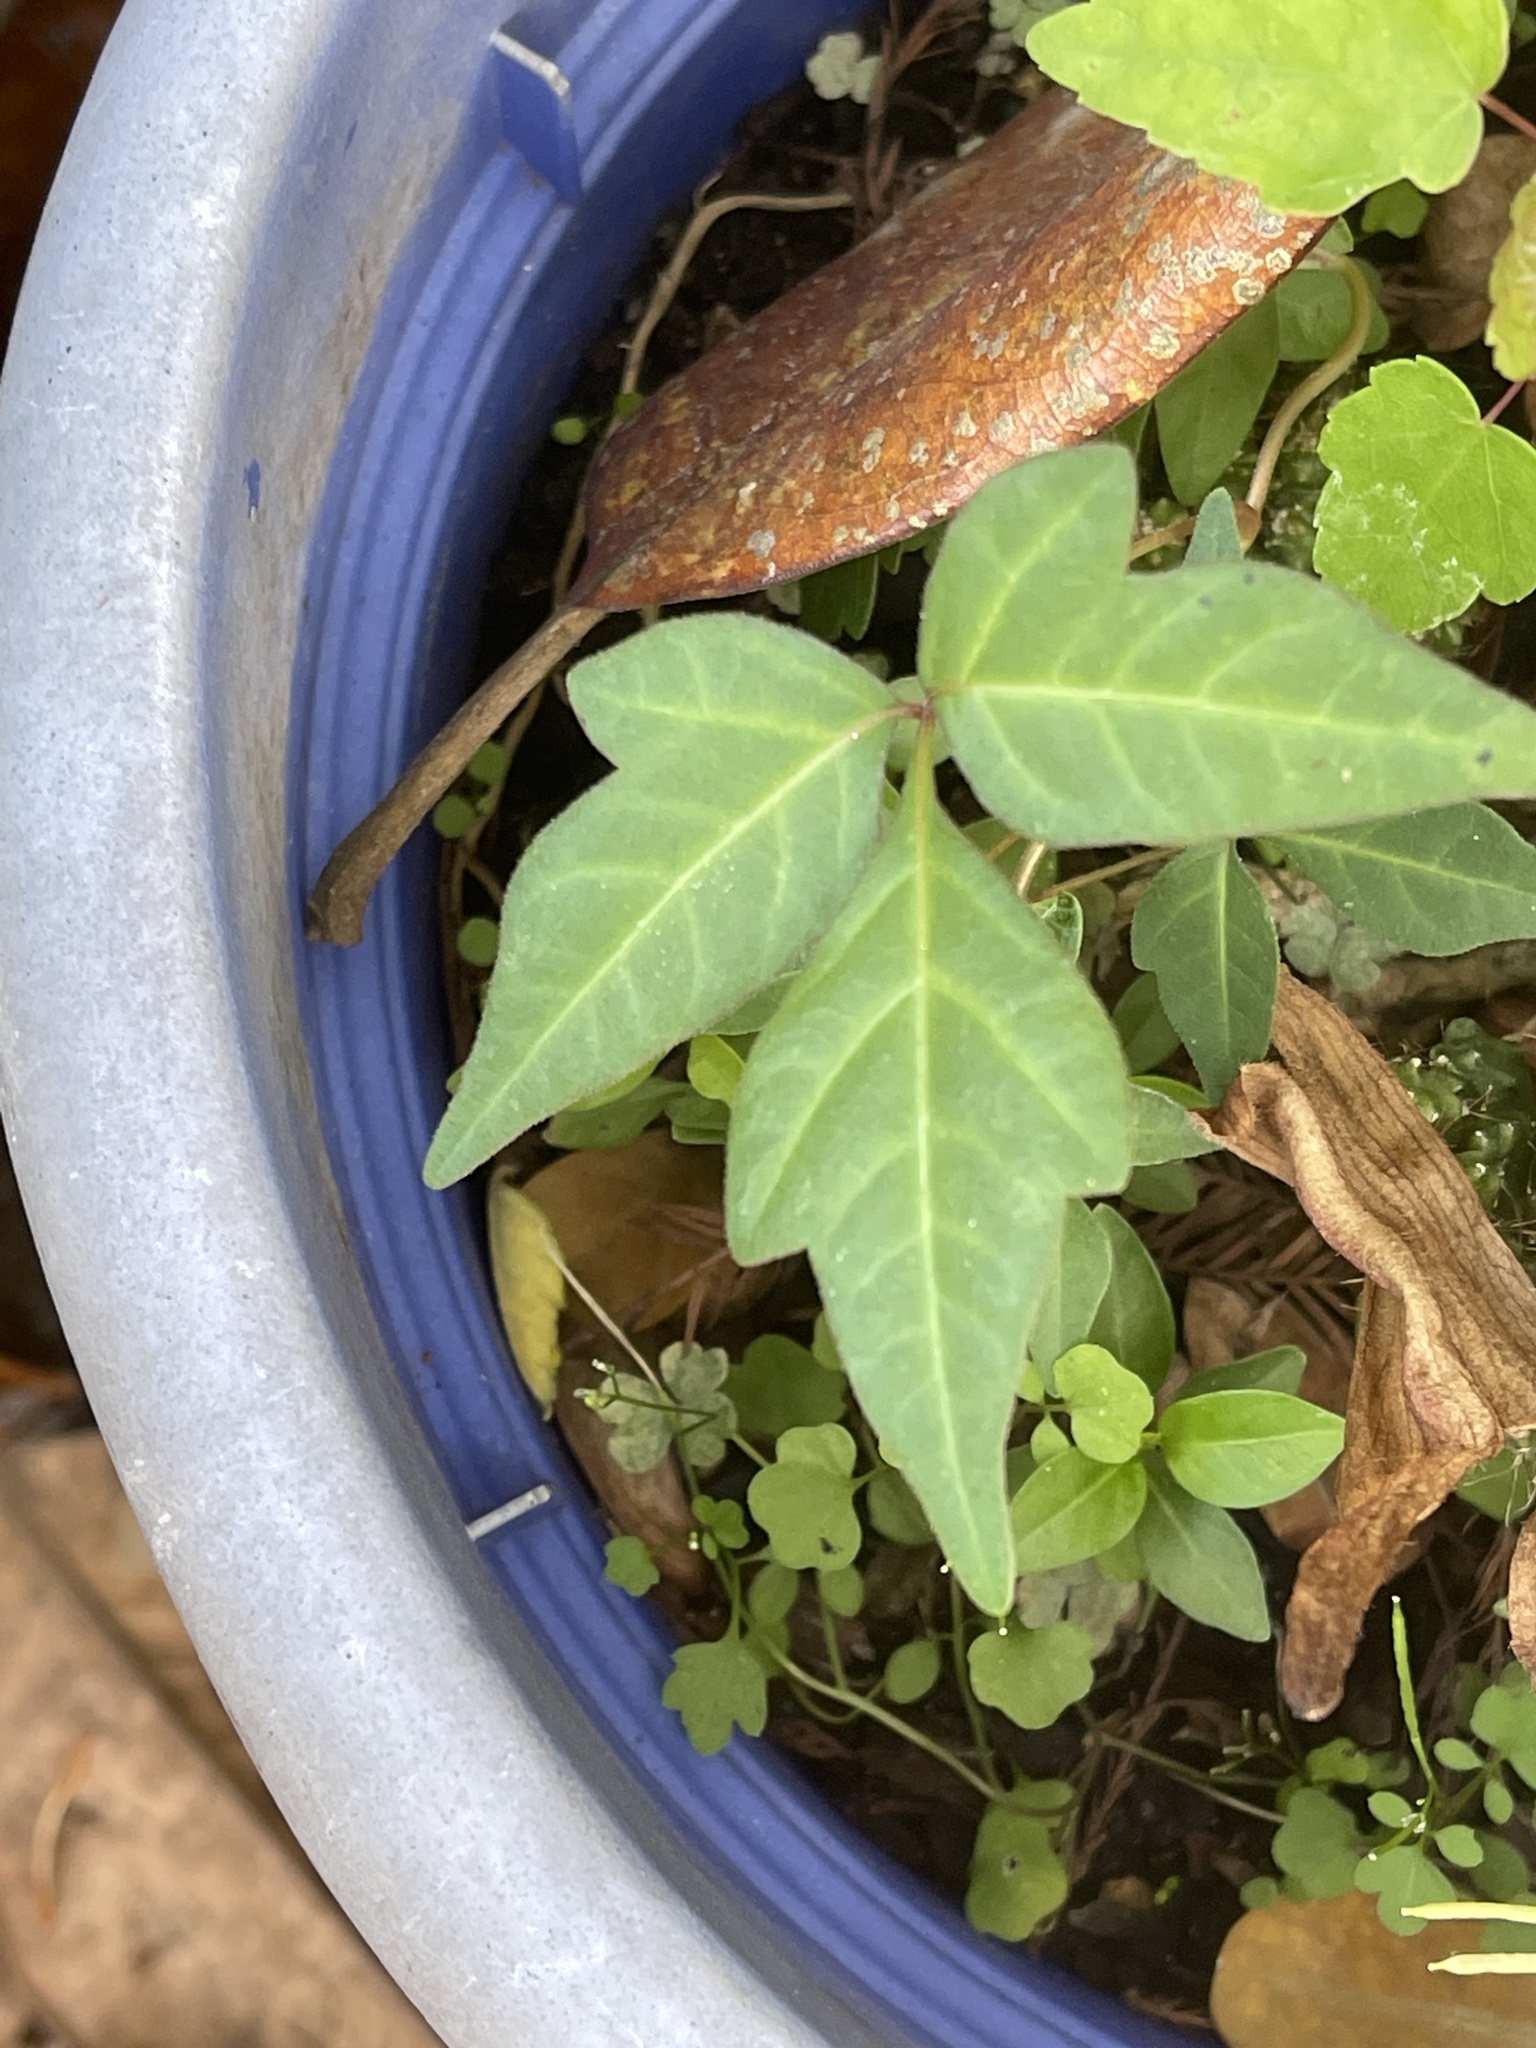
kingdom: Plantae
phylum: Tracheophyta
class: Magnoliopsida
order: Sapindales
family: Anacardiaceae
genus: Toxicodendron
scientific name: Toxicodendron radicans
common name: Poison ivy
